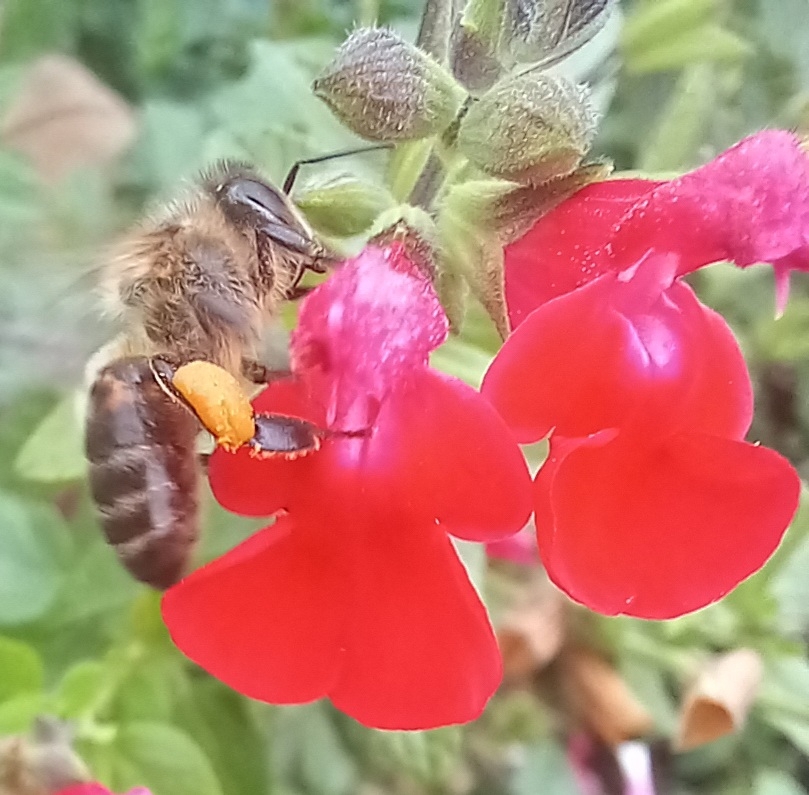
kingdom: Animalia
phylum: Arthropoda
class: Insecta
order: Hymenoptera
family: Apidae
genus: Apis
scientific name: Apis mellifera
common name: Honey bee
